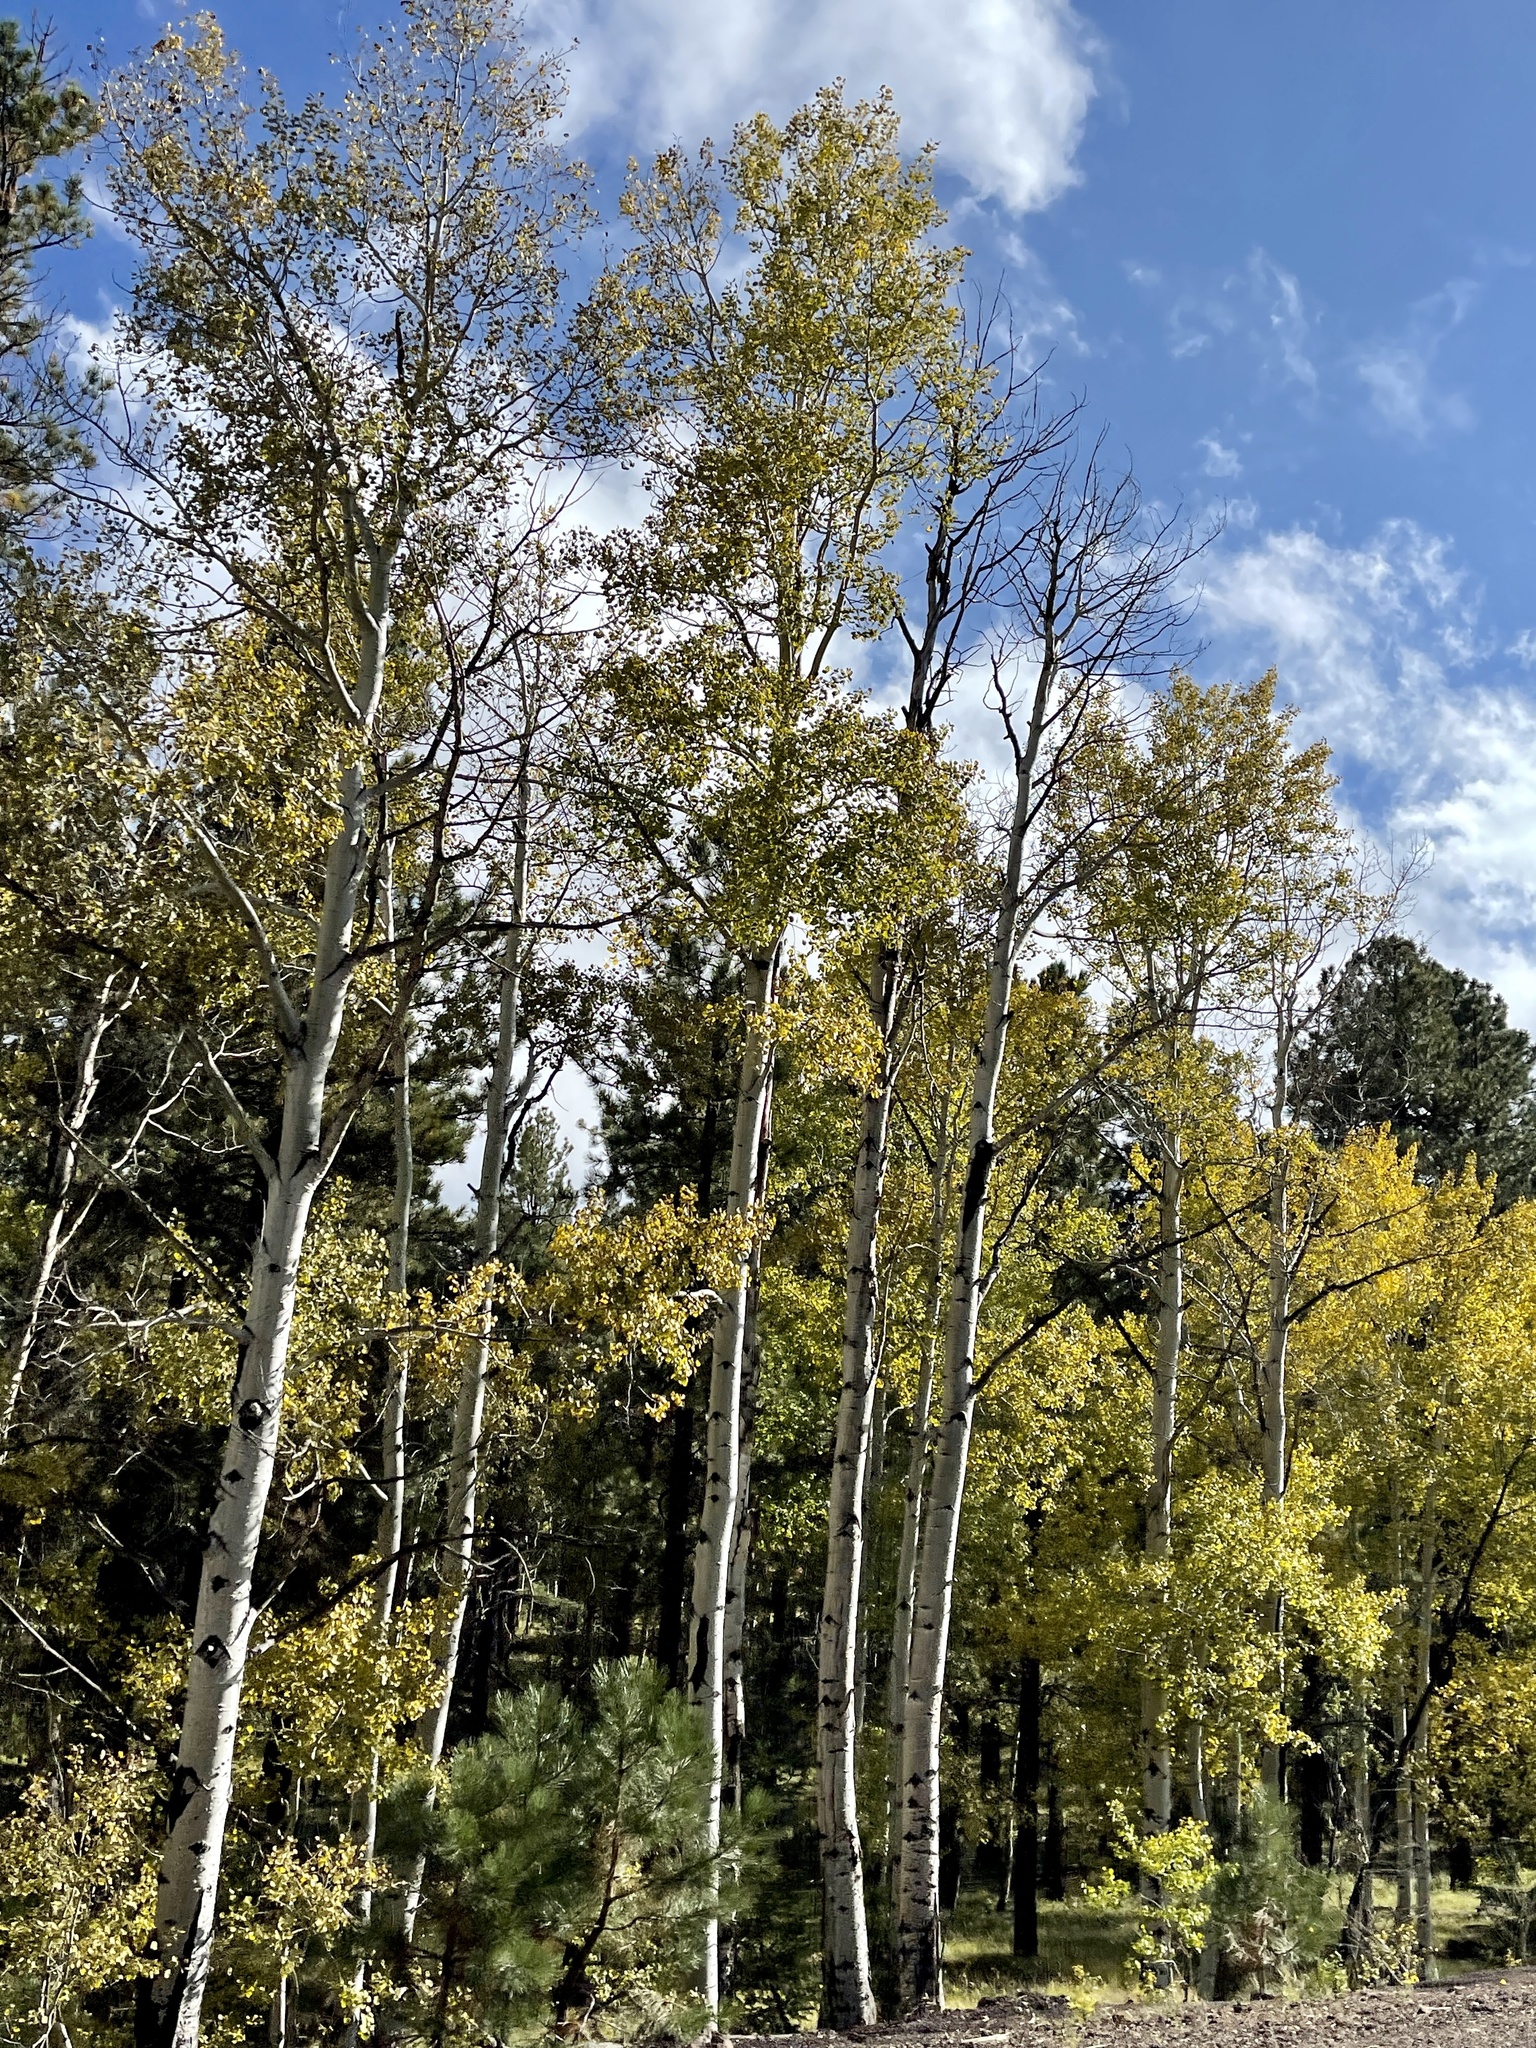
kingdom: Plantae
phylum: Tracheophyta
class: Magnoliopsida
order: Malpighiales
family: Salicaceae
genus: Populus
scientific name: Populus tremuloides
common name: Quaking aspen
